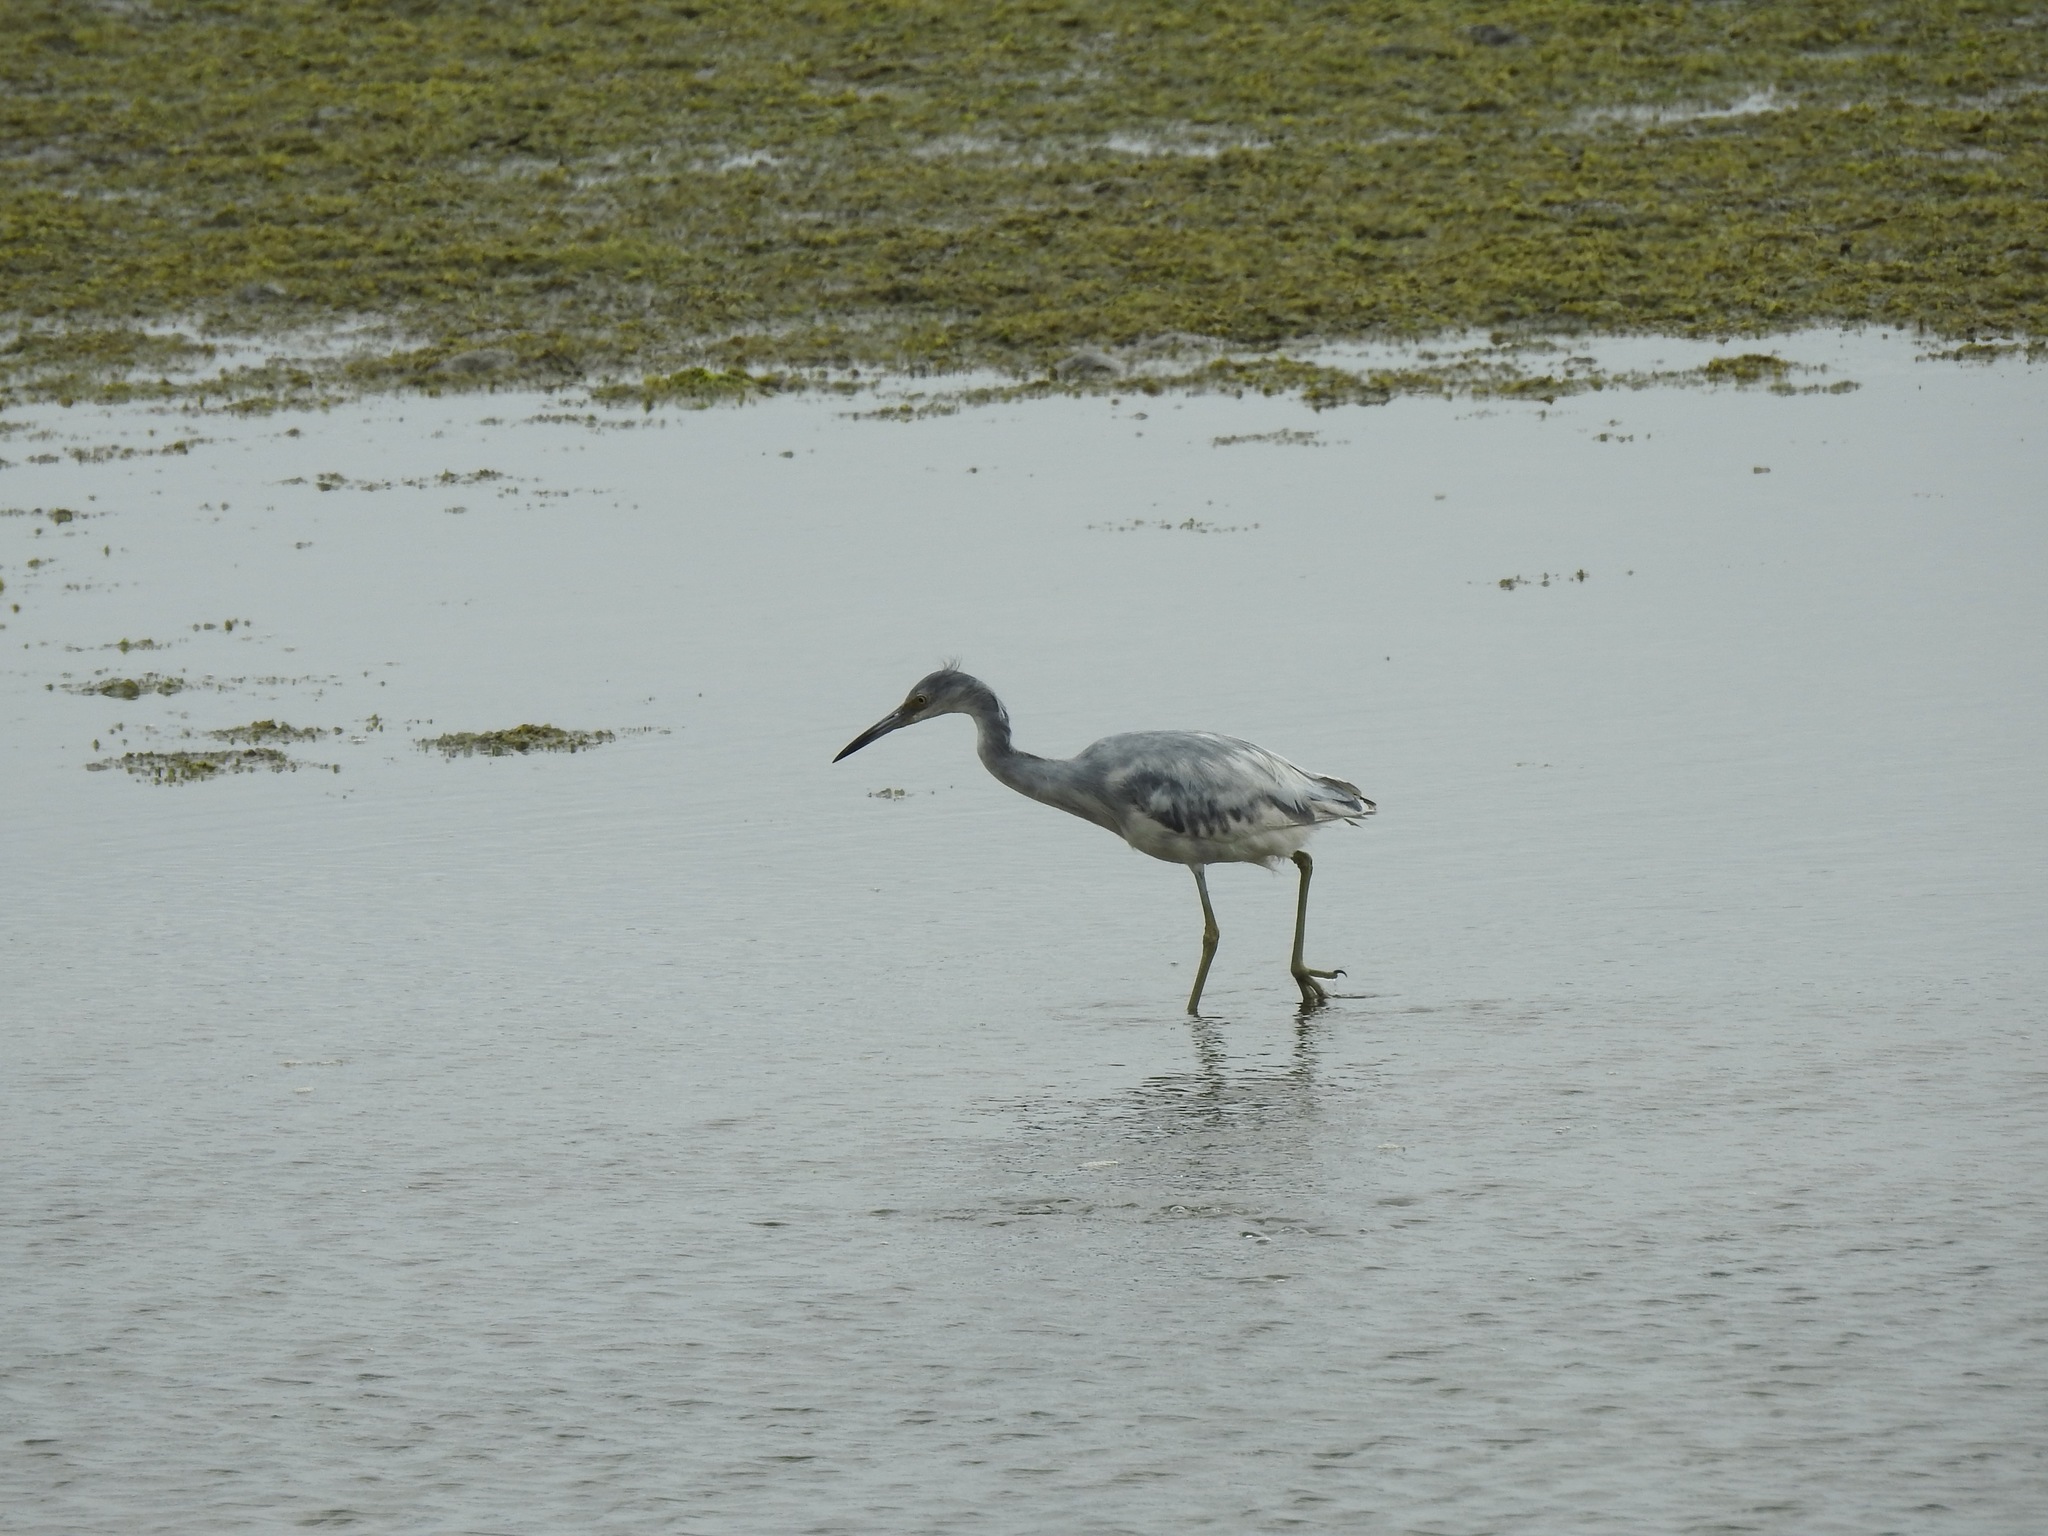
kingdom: Animalia
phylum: Chordata
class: Aves
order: Pelecaniformes
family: Ardeidae
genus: Egretta
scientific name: Egretta caerulea
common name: Little blue heron
